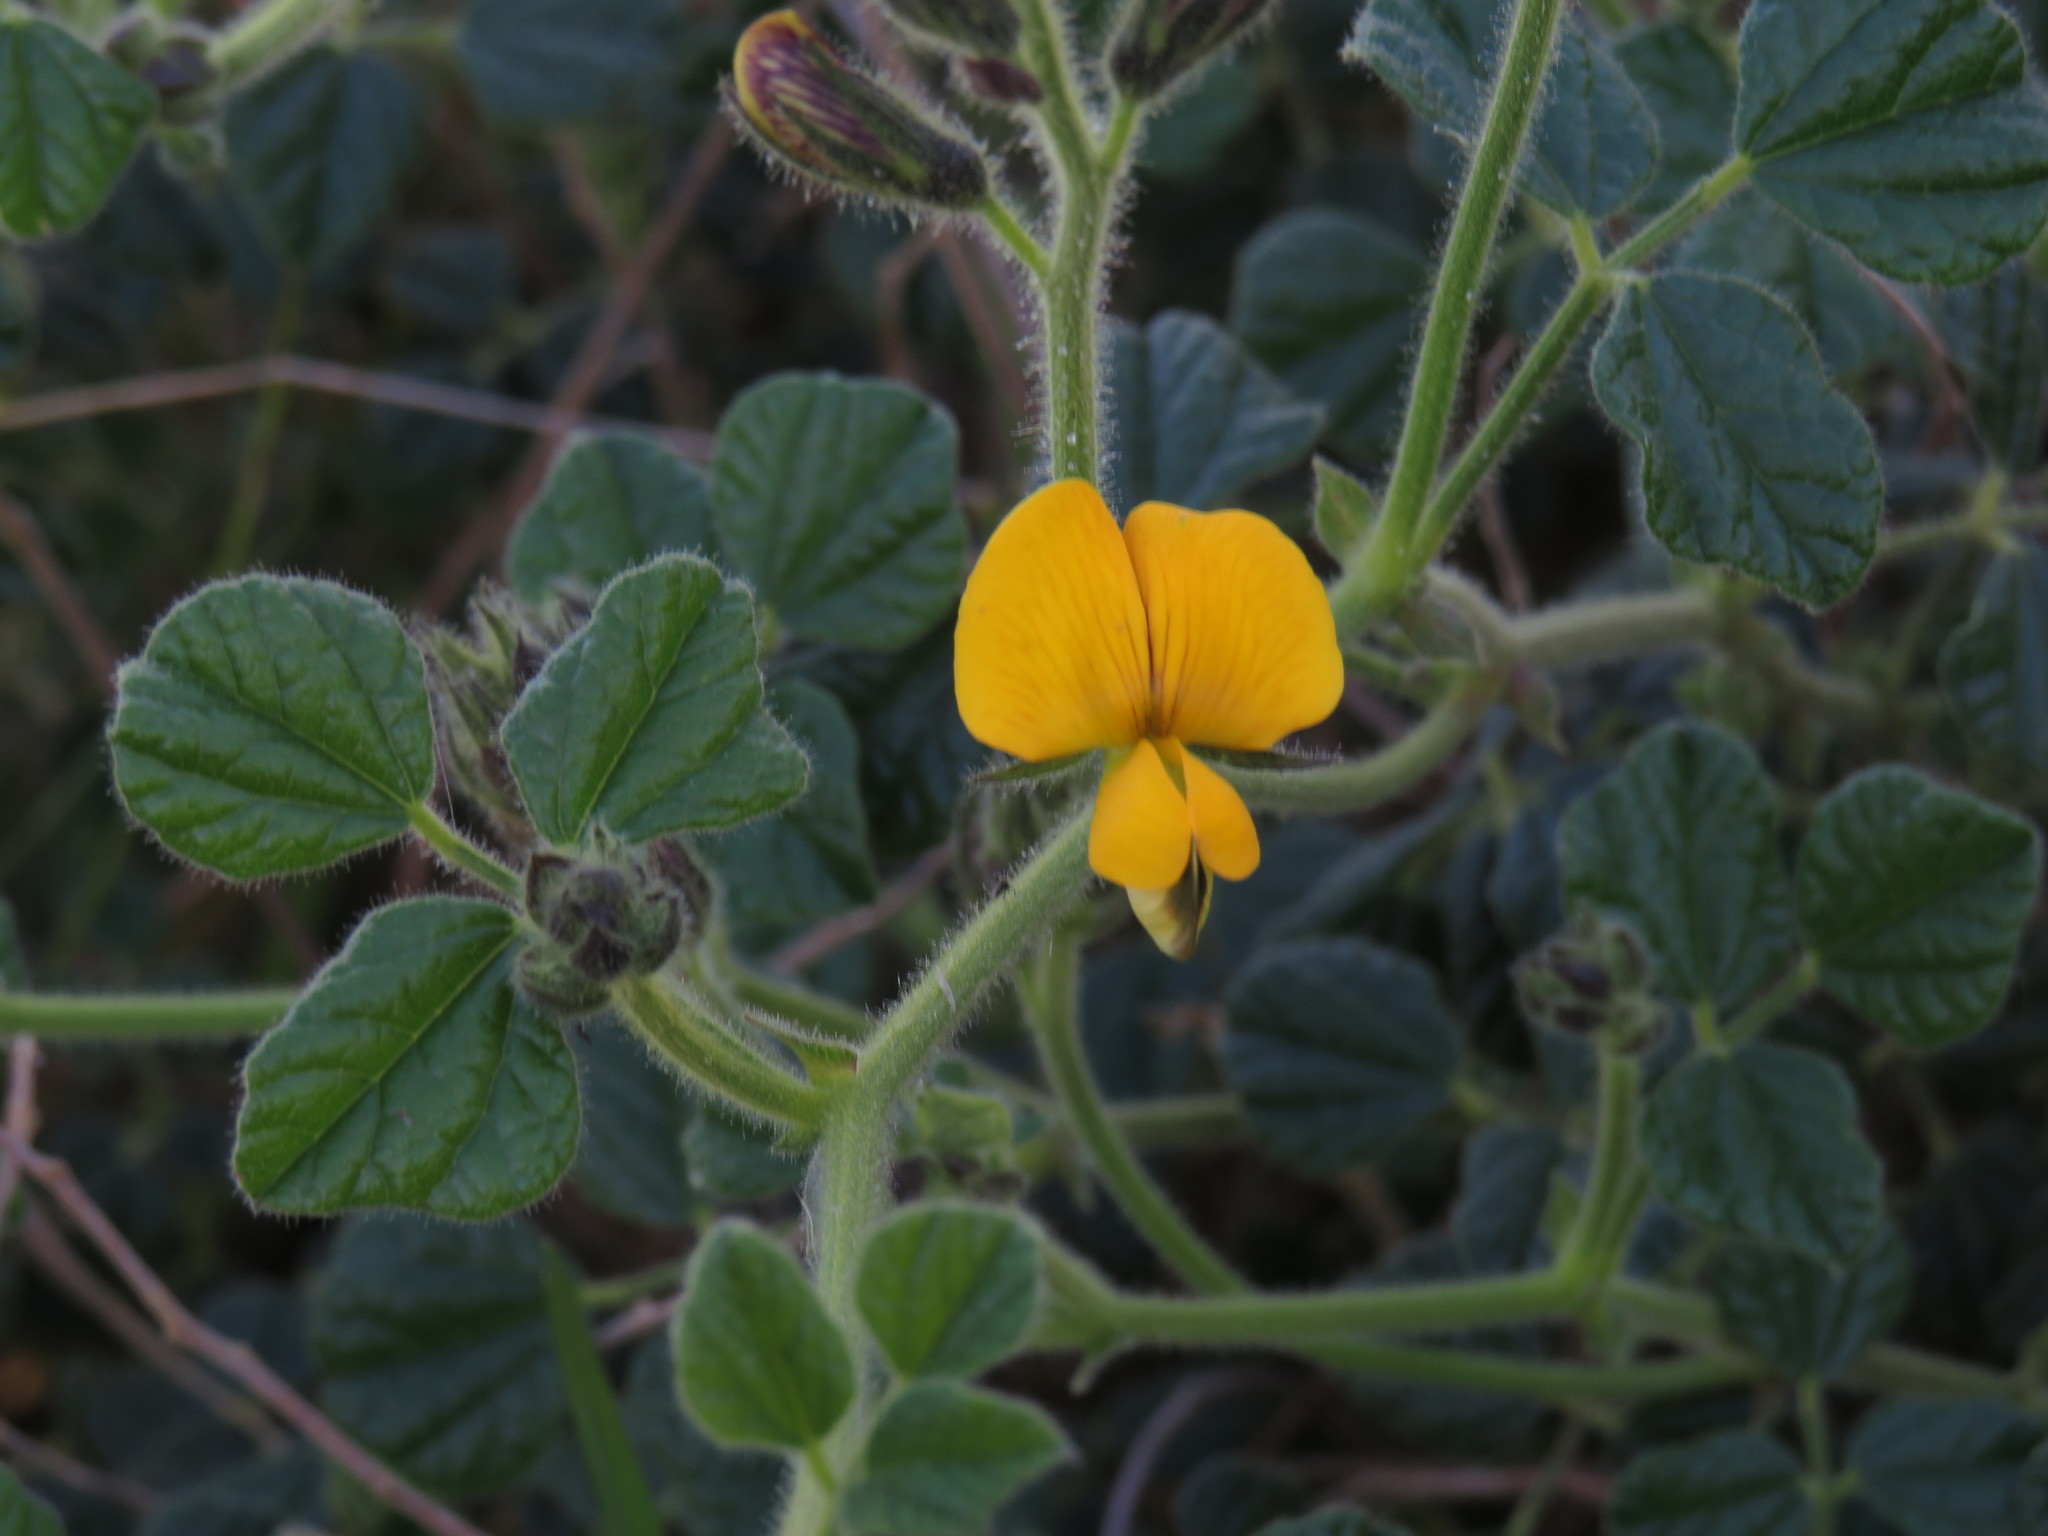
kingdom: Plantae
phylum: Tracheophyta
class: Magnoliopsida
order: Fabales
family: Fabaceae
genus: Bolusafra
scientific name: Bolusafra bituminosa
